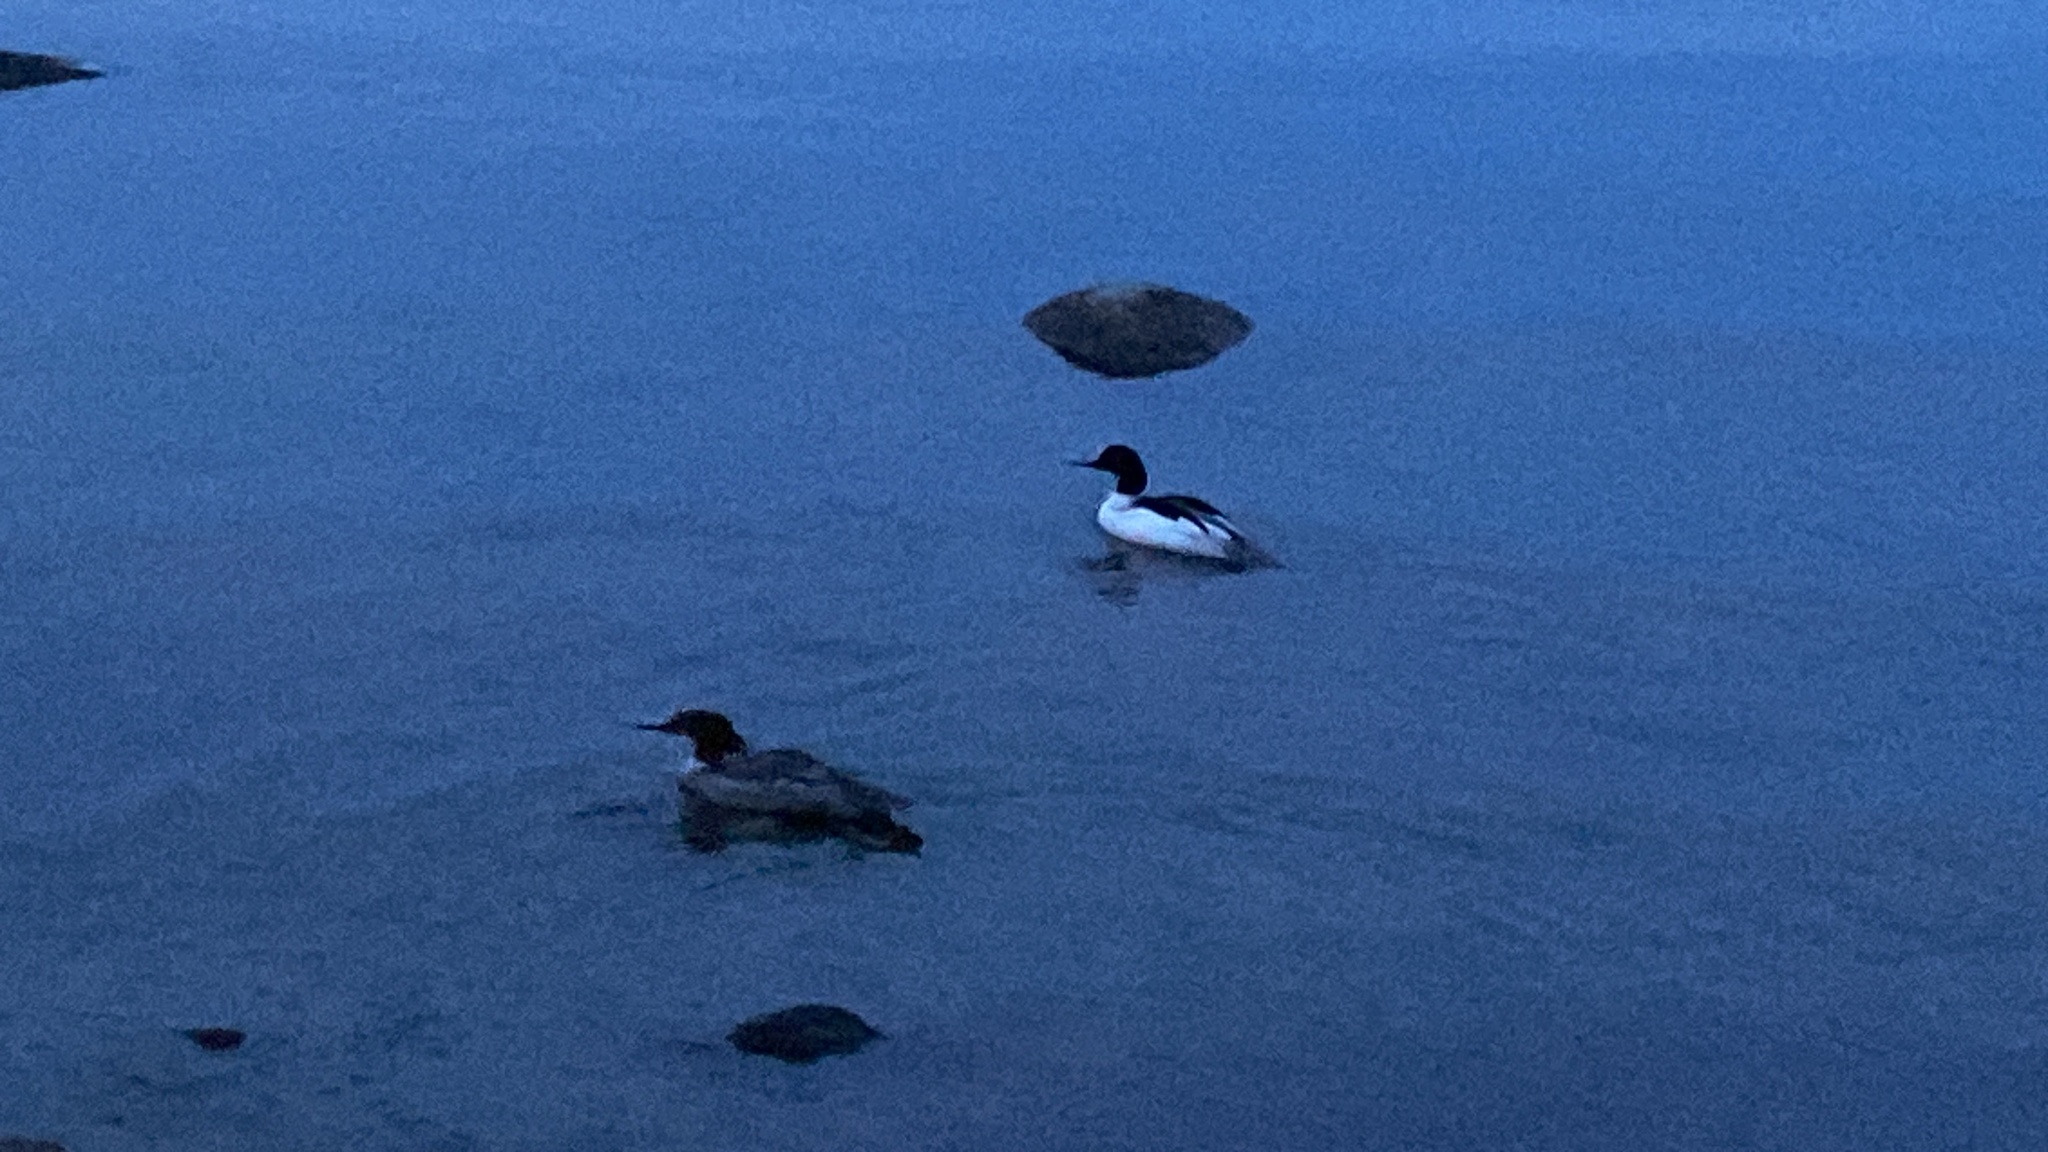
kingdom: Animalia
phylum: Chordata
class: Aves
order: Anseriformes
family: Anatidae
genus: Mergus
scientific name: Mergus merganser
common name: Common merganser
